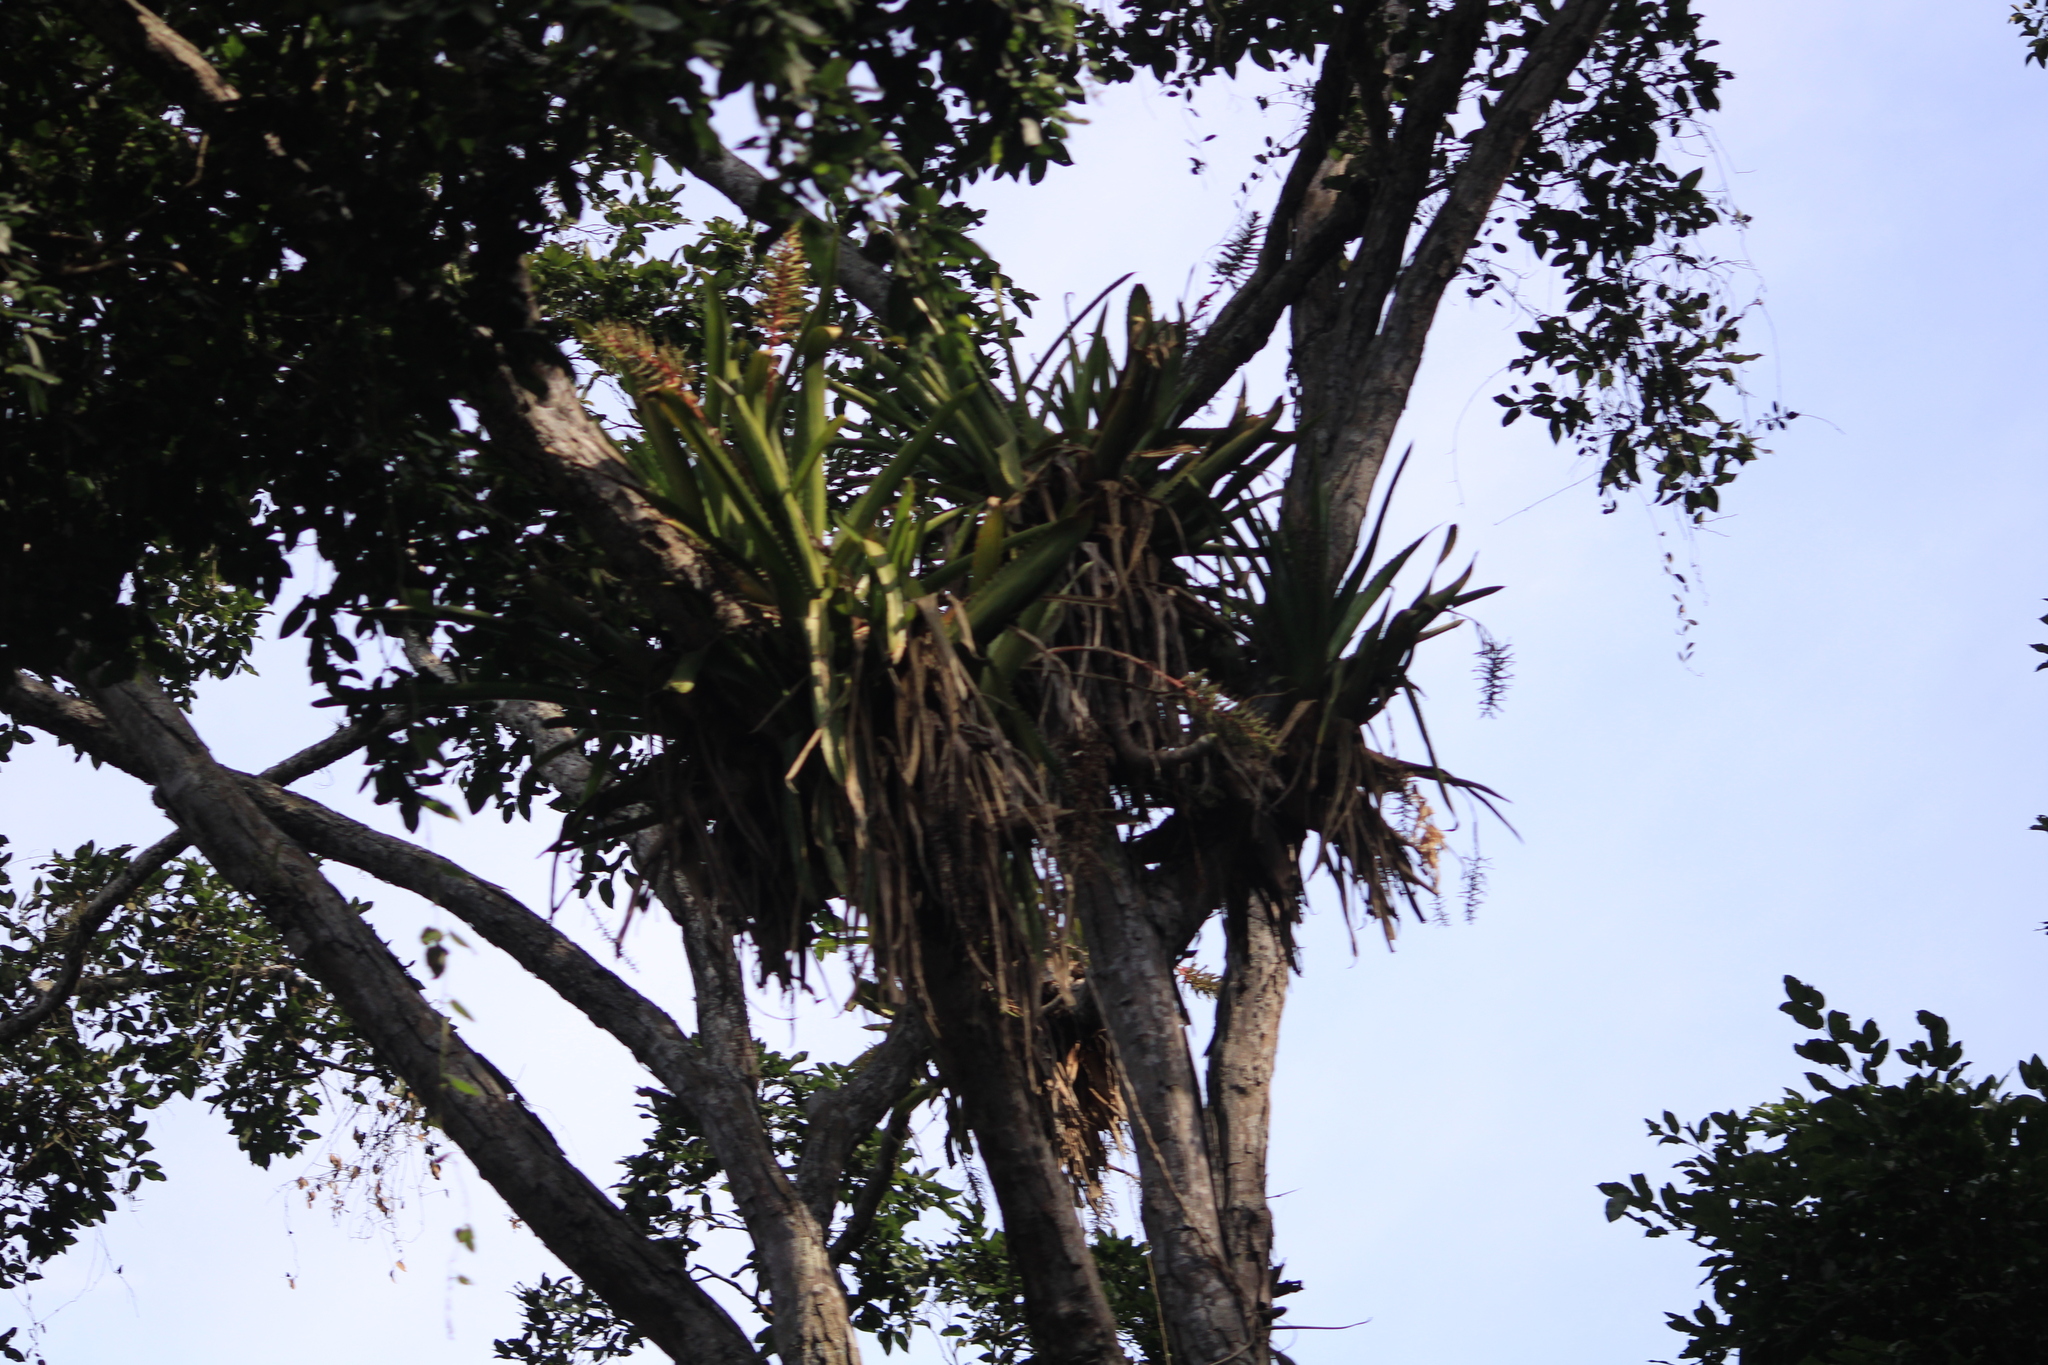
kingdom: Plantae
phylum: Tracheophyta
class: Liliopsida
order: Poales
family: Bromeliaceae
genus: Aechmea
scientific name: Aechmea bracteata
